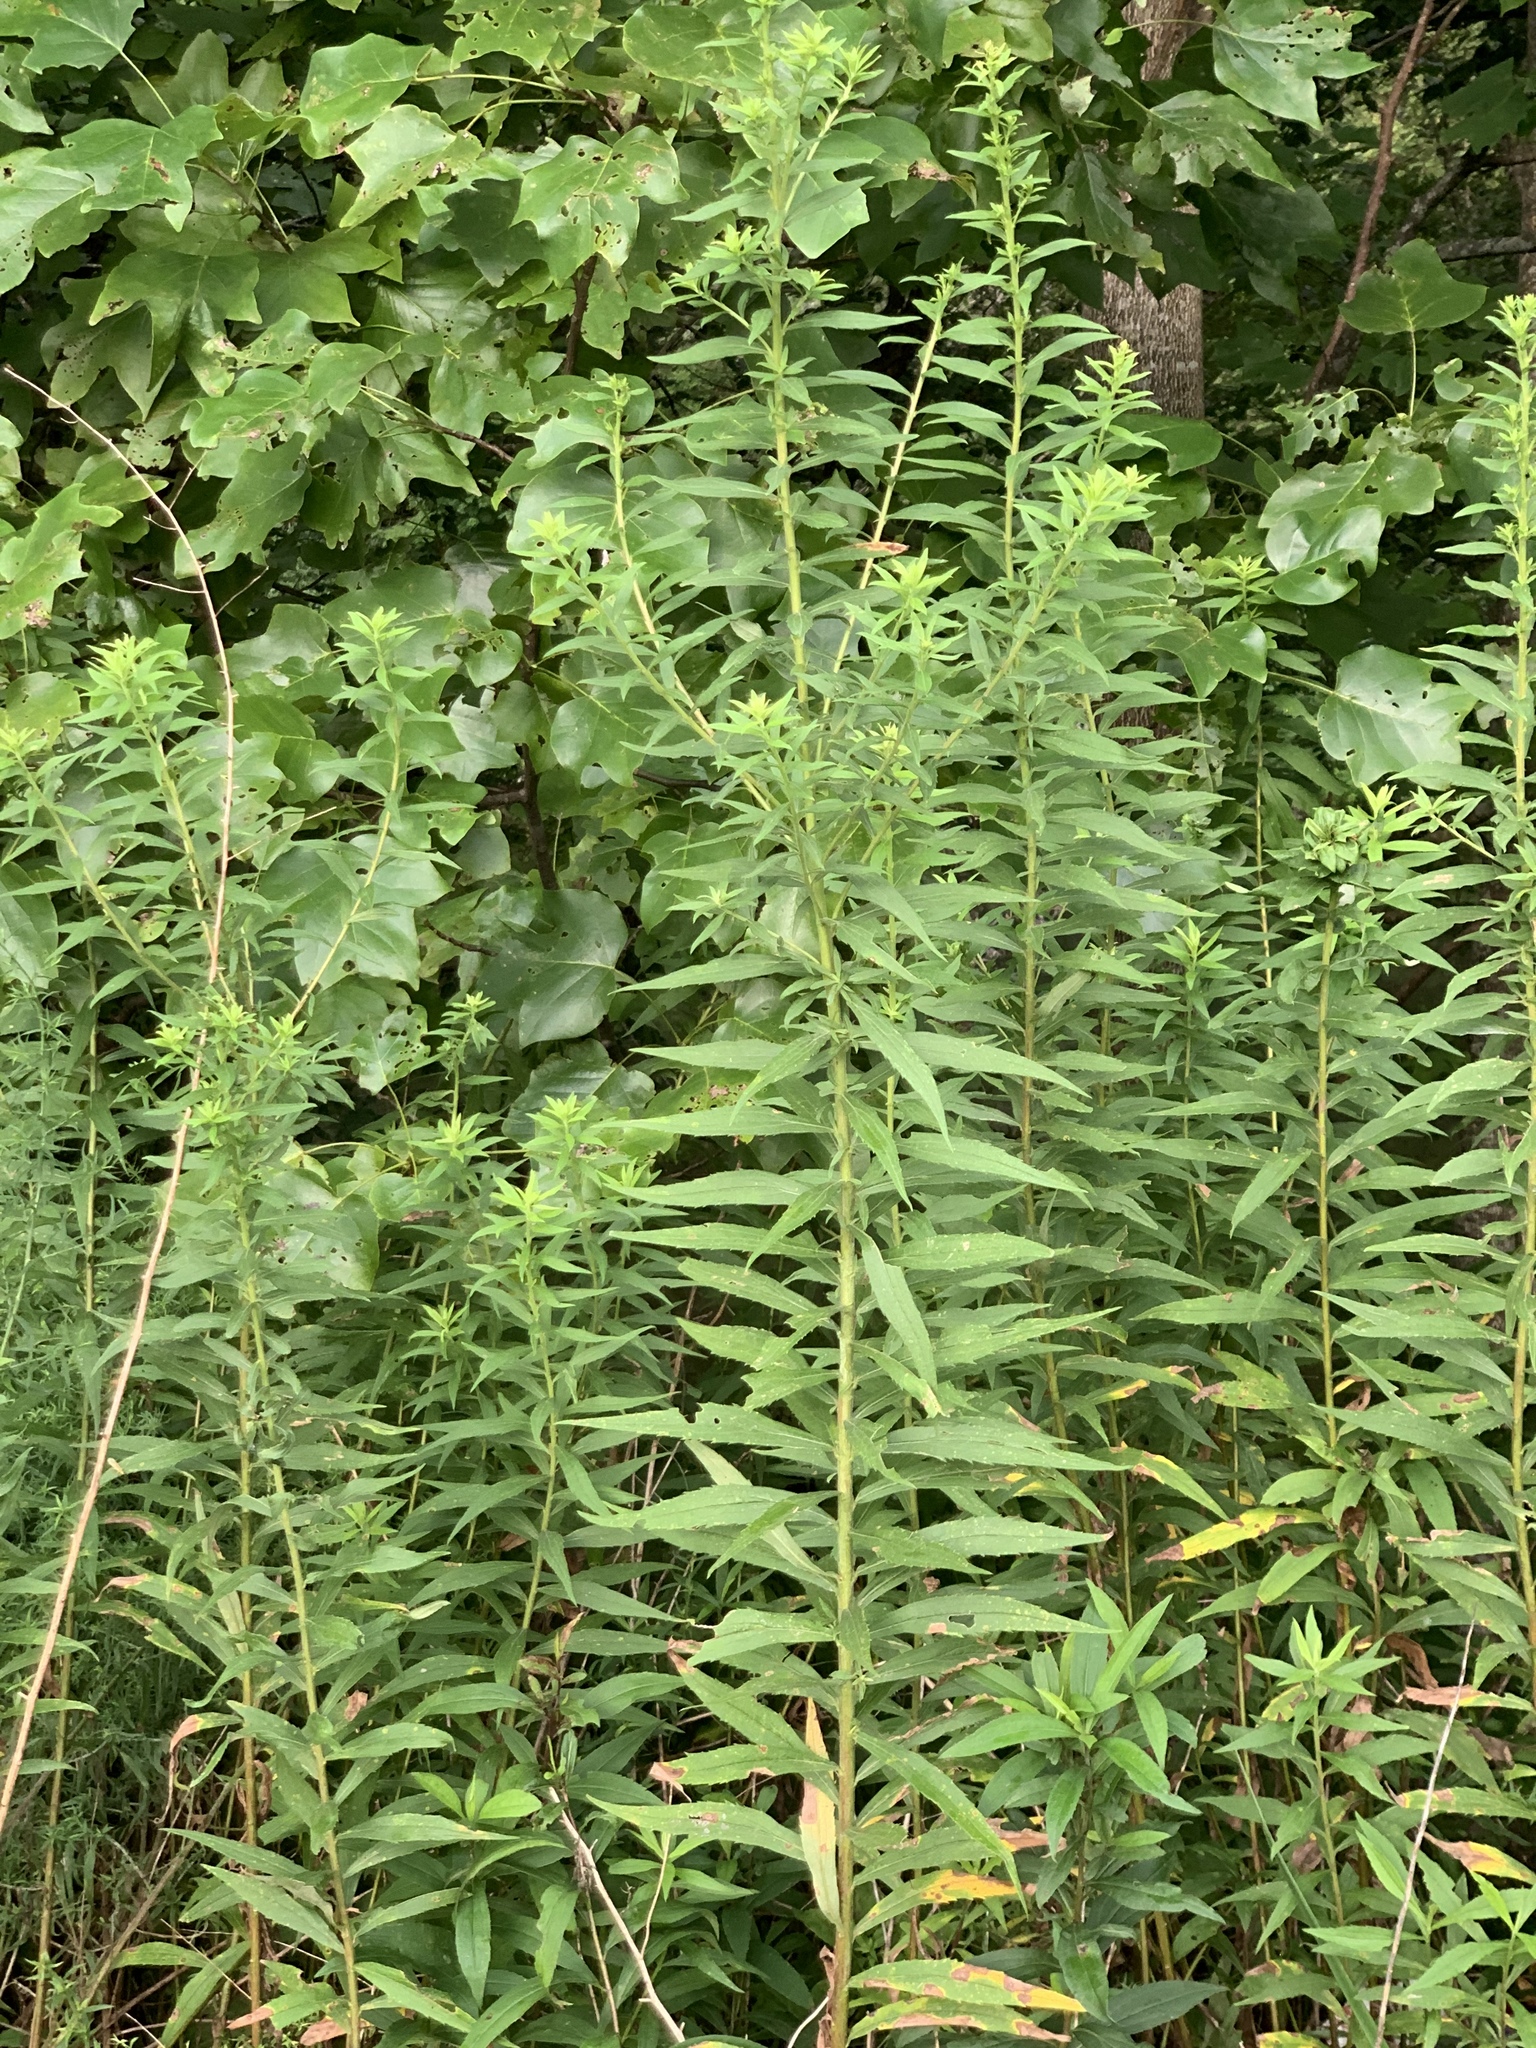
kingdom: Plantae
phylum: Tracheophyta
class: Magnoliopsida
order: Asterales
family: Asteraceae
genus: Solidago
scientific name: Solidago altissima
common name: Late goldenrod
